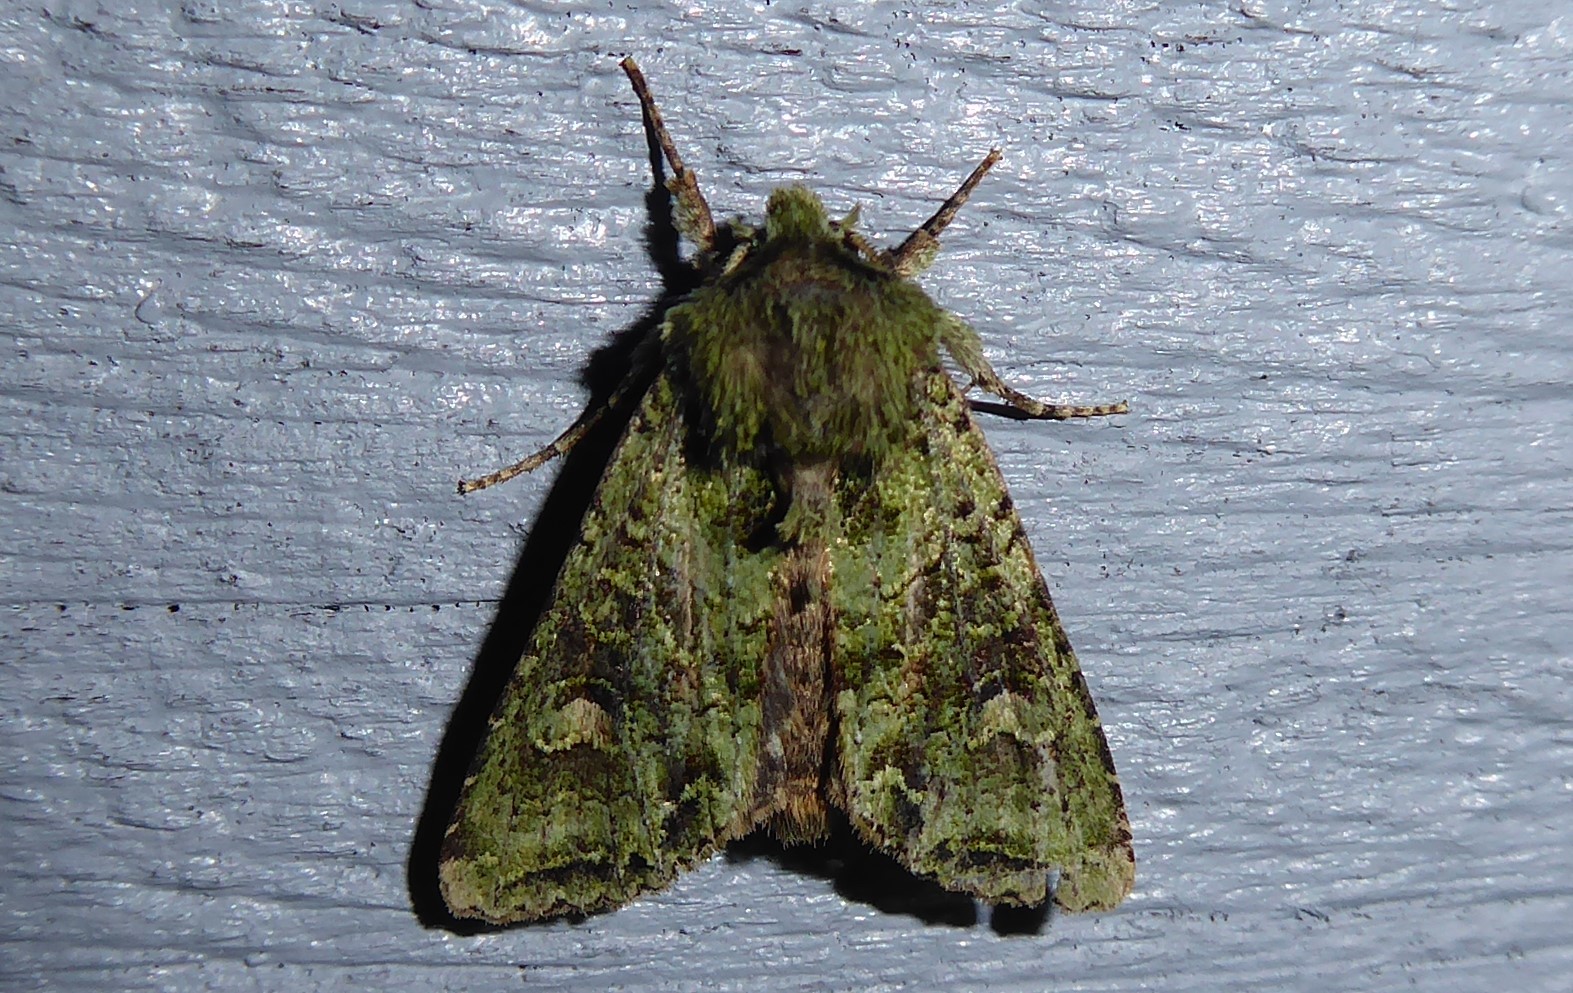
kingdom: Animalia
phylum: Arthropoda
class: Insecta
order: Lepidoptera
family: Noctuidae
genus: Ichneutica
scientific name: Ichneutica
